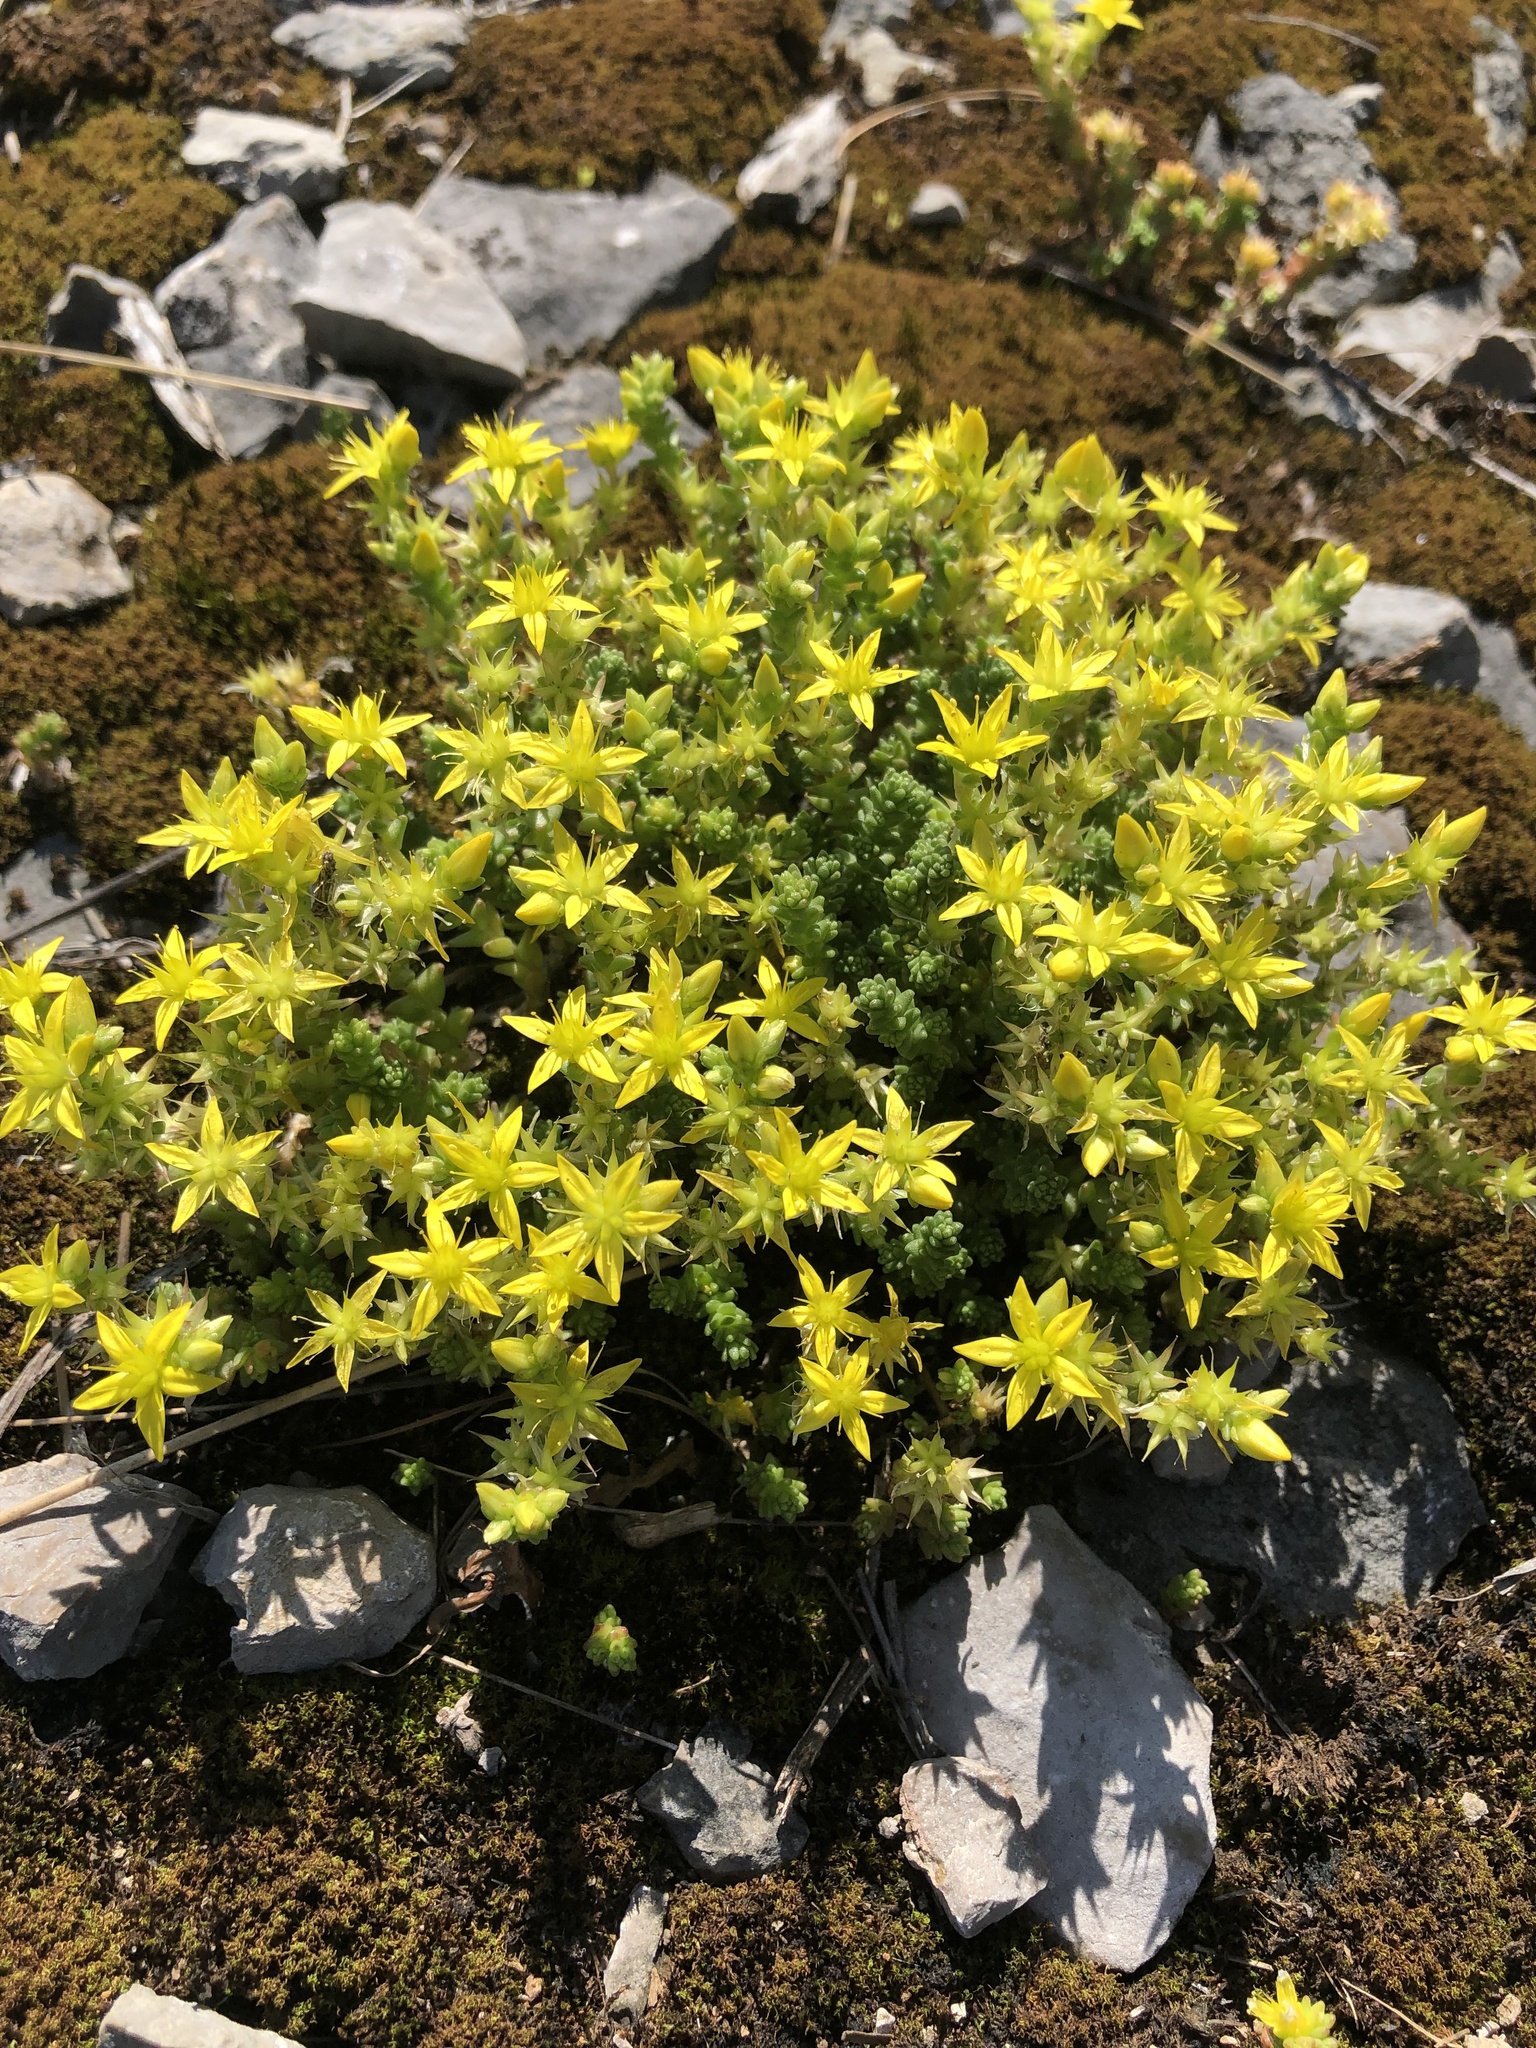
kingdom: Plantae
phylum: Tracheophyta
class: Magnoliopsida
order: Saxifragales
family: Crassulaceae
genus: Sedum
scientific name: Sedum acre
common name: Biting stonecrop
